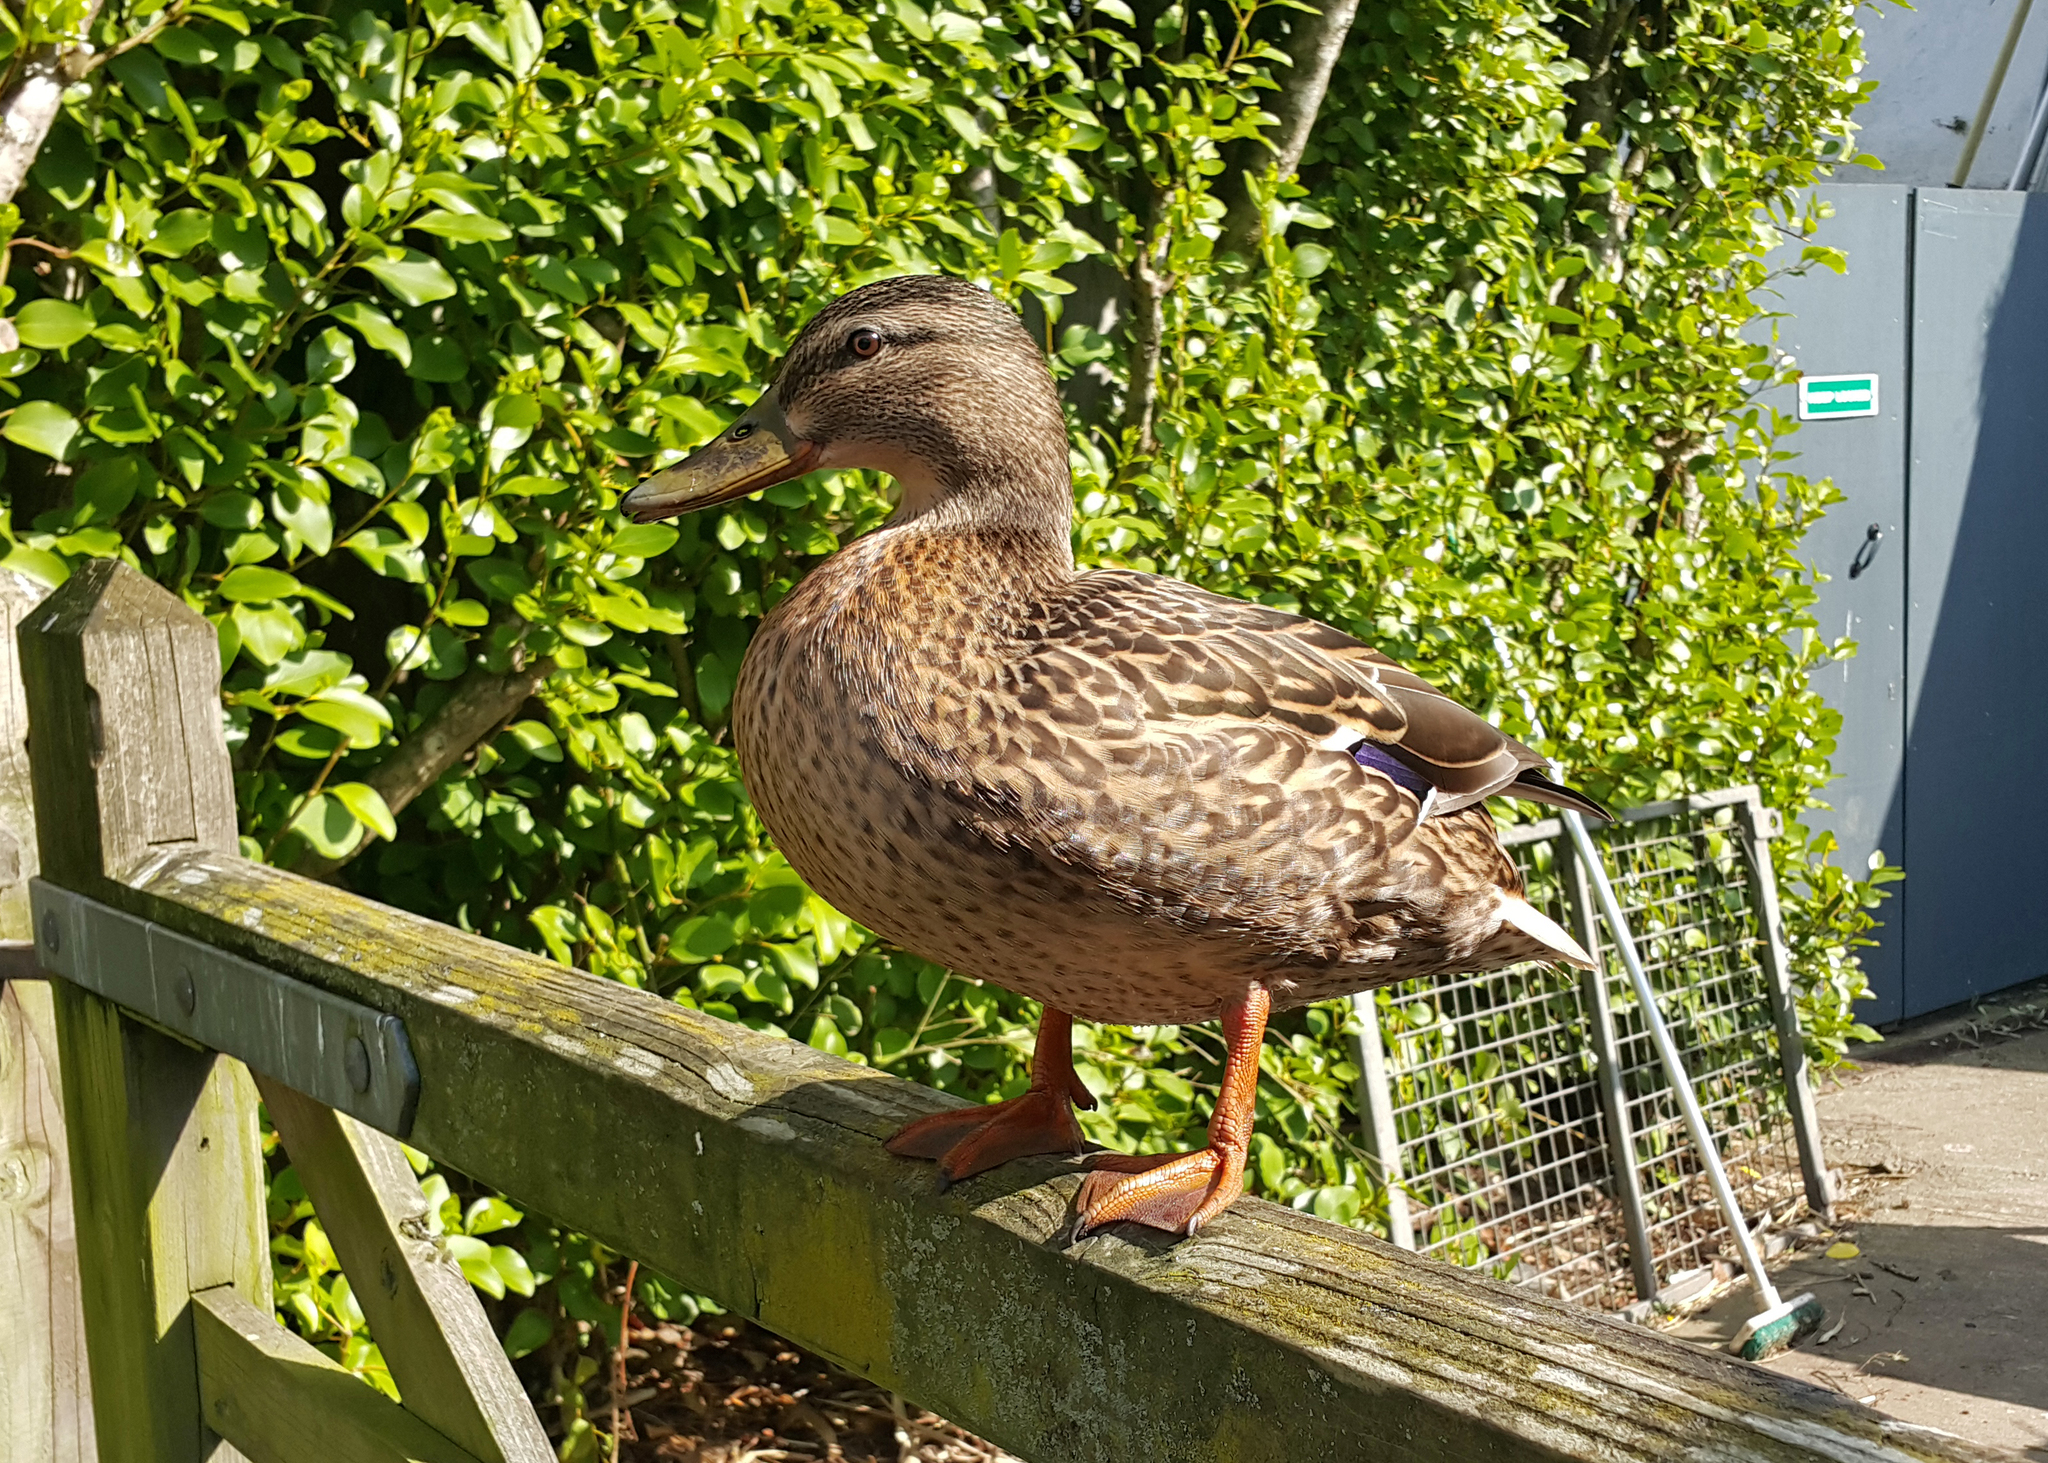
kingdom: Animalia
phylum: Chordata
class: Aves
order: Anseriformes
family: Anatidae
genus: Anas
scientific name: Anas platyrhynchos
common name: Mallard
